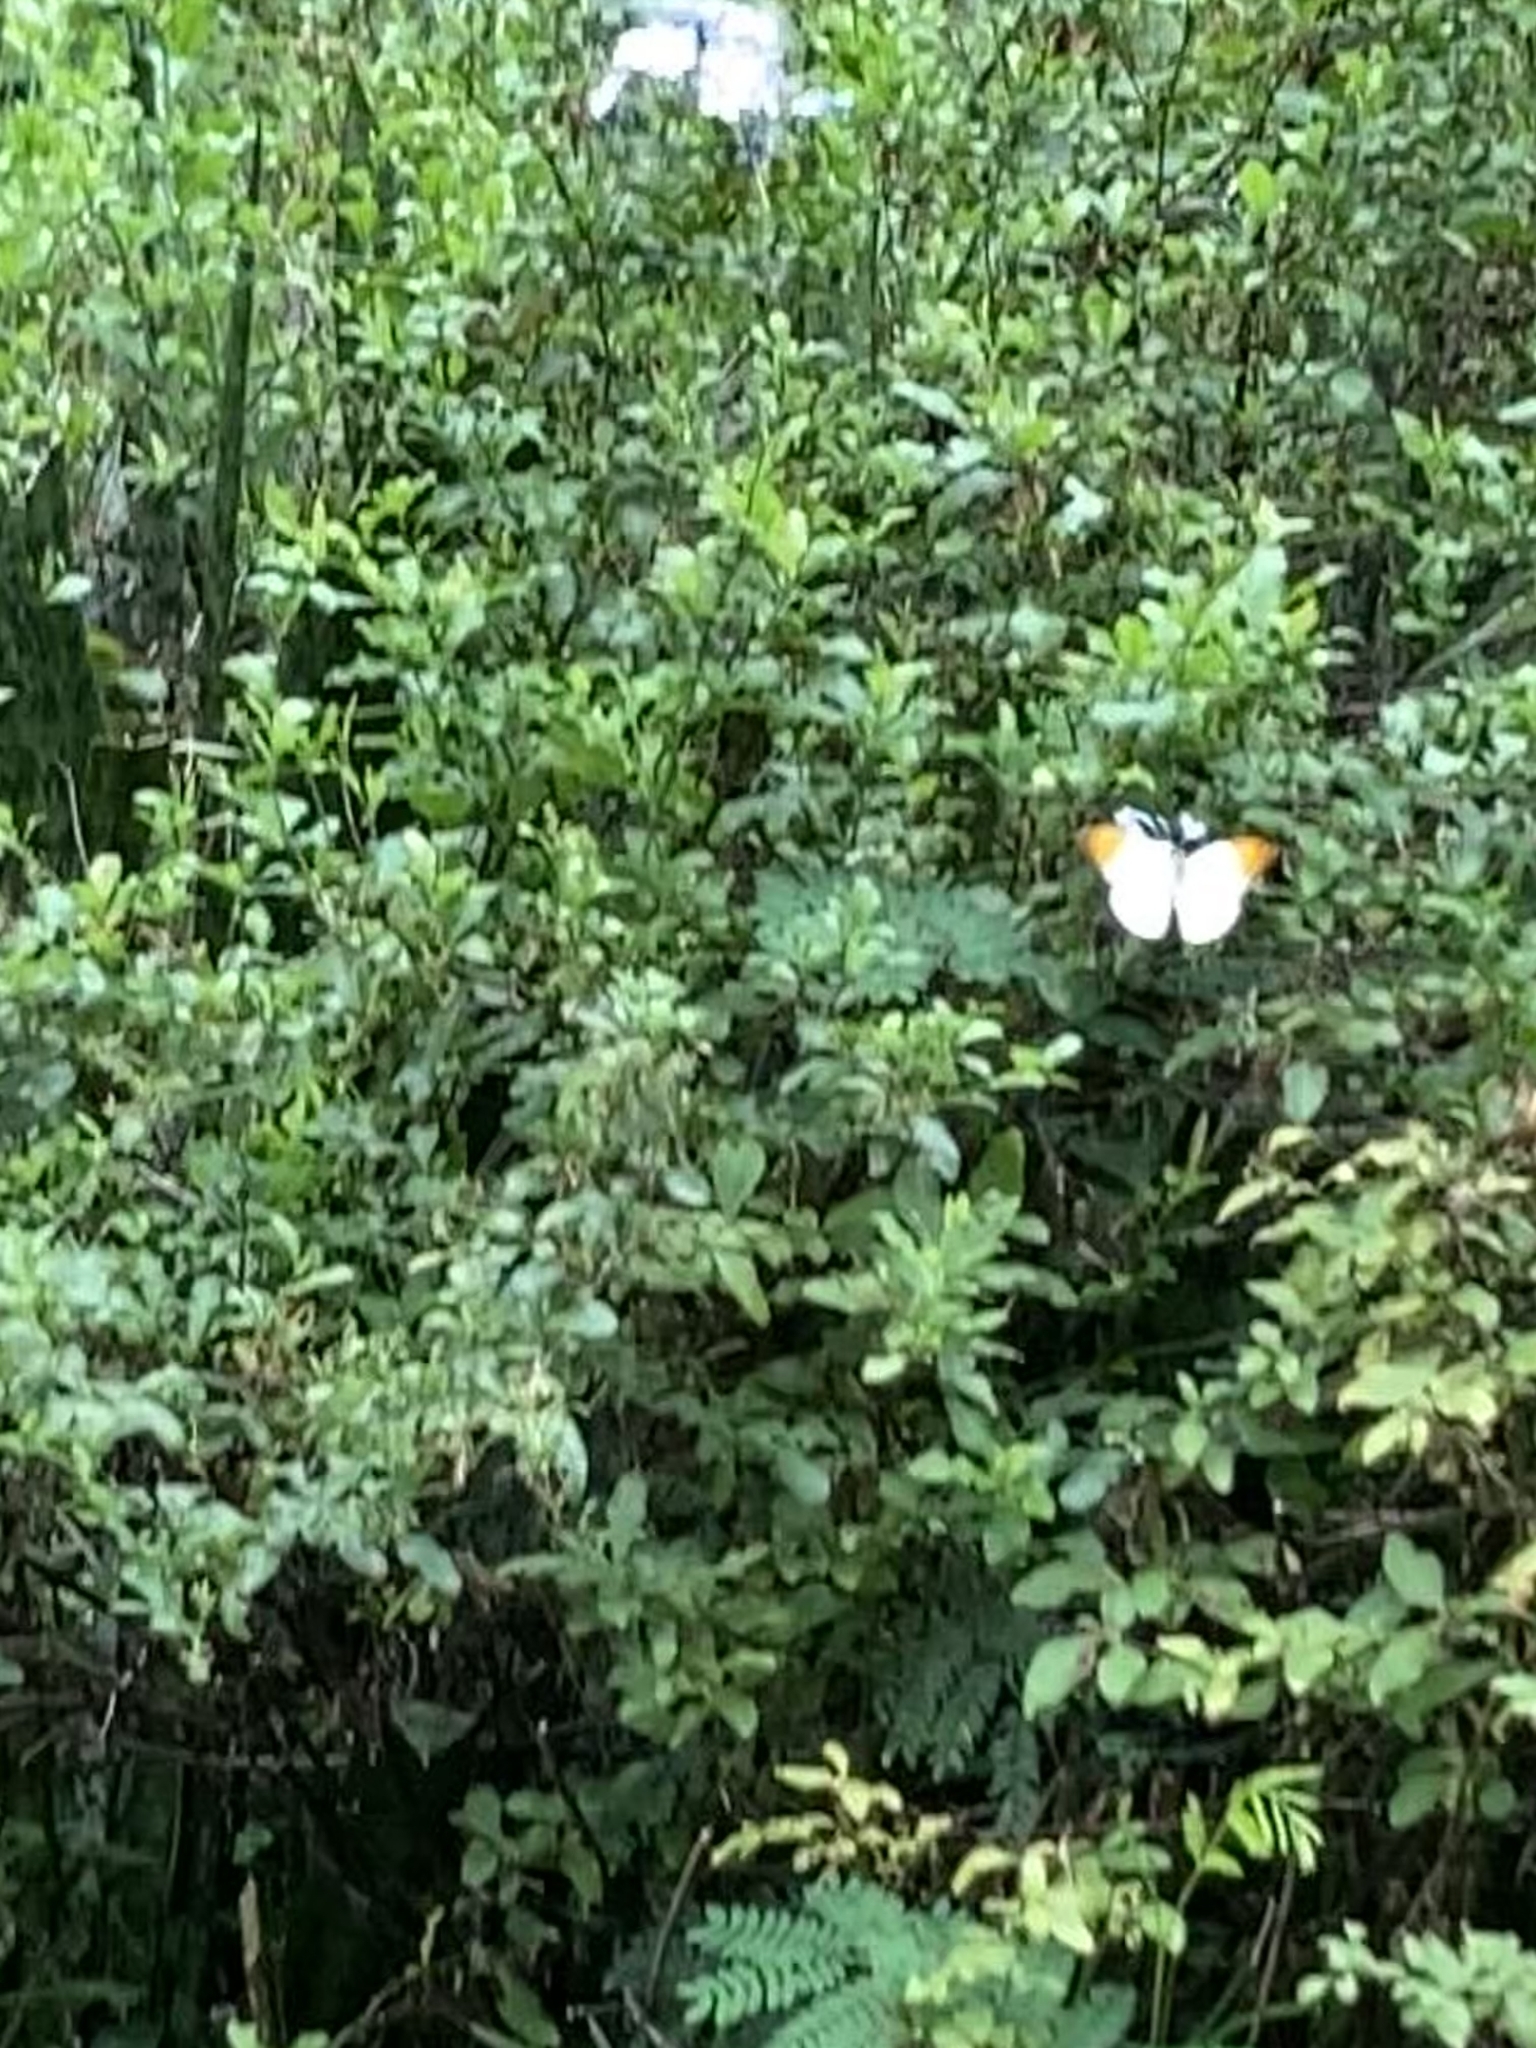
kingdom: Animalia
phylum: Arthropoda
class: Insecta
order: Lepidoptera
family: Pieridae
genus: Hebomoia
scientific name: Hebomoia glaucippe
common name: Great orange tip
